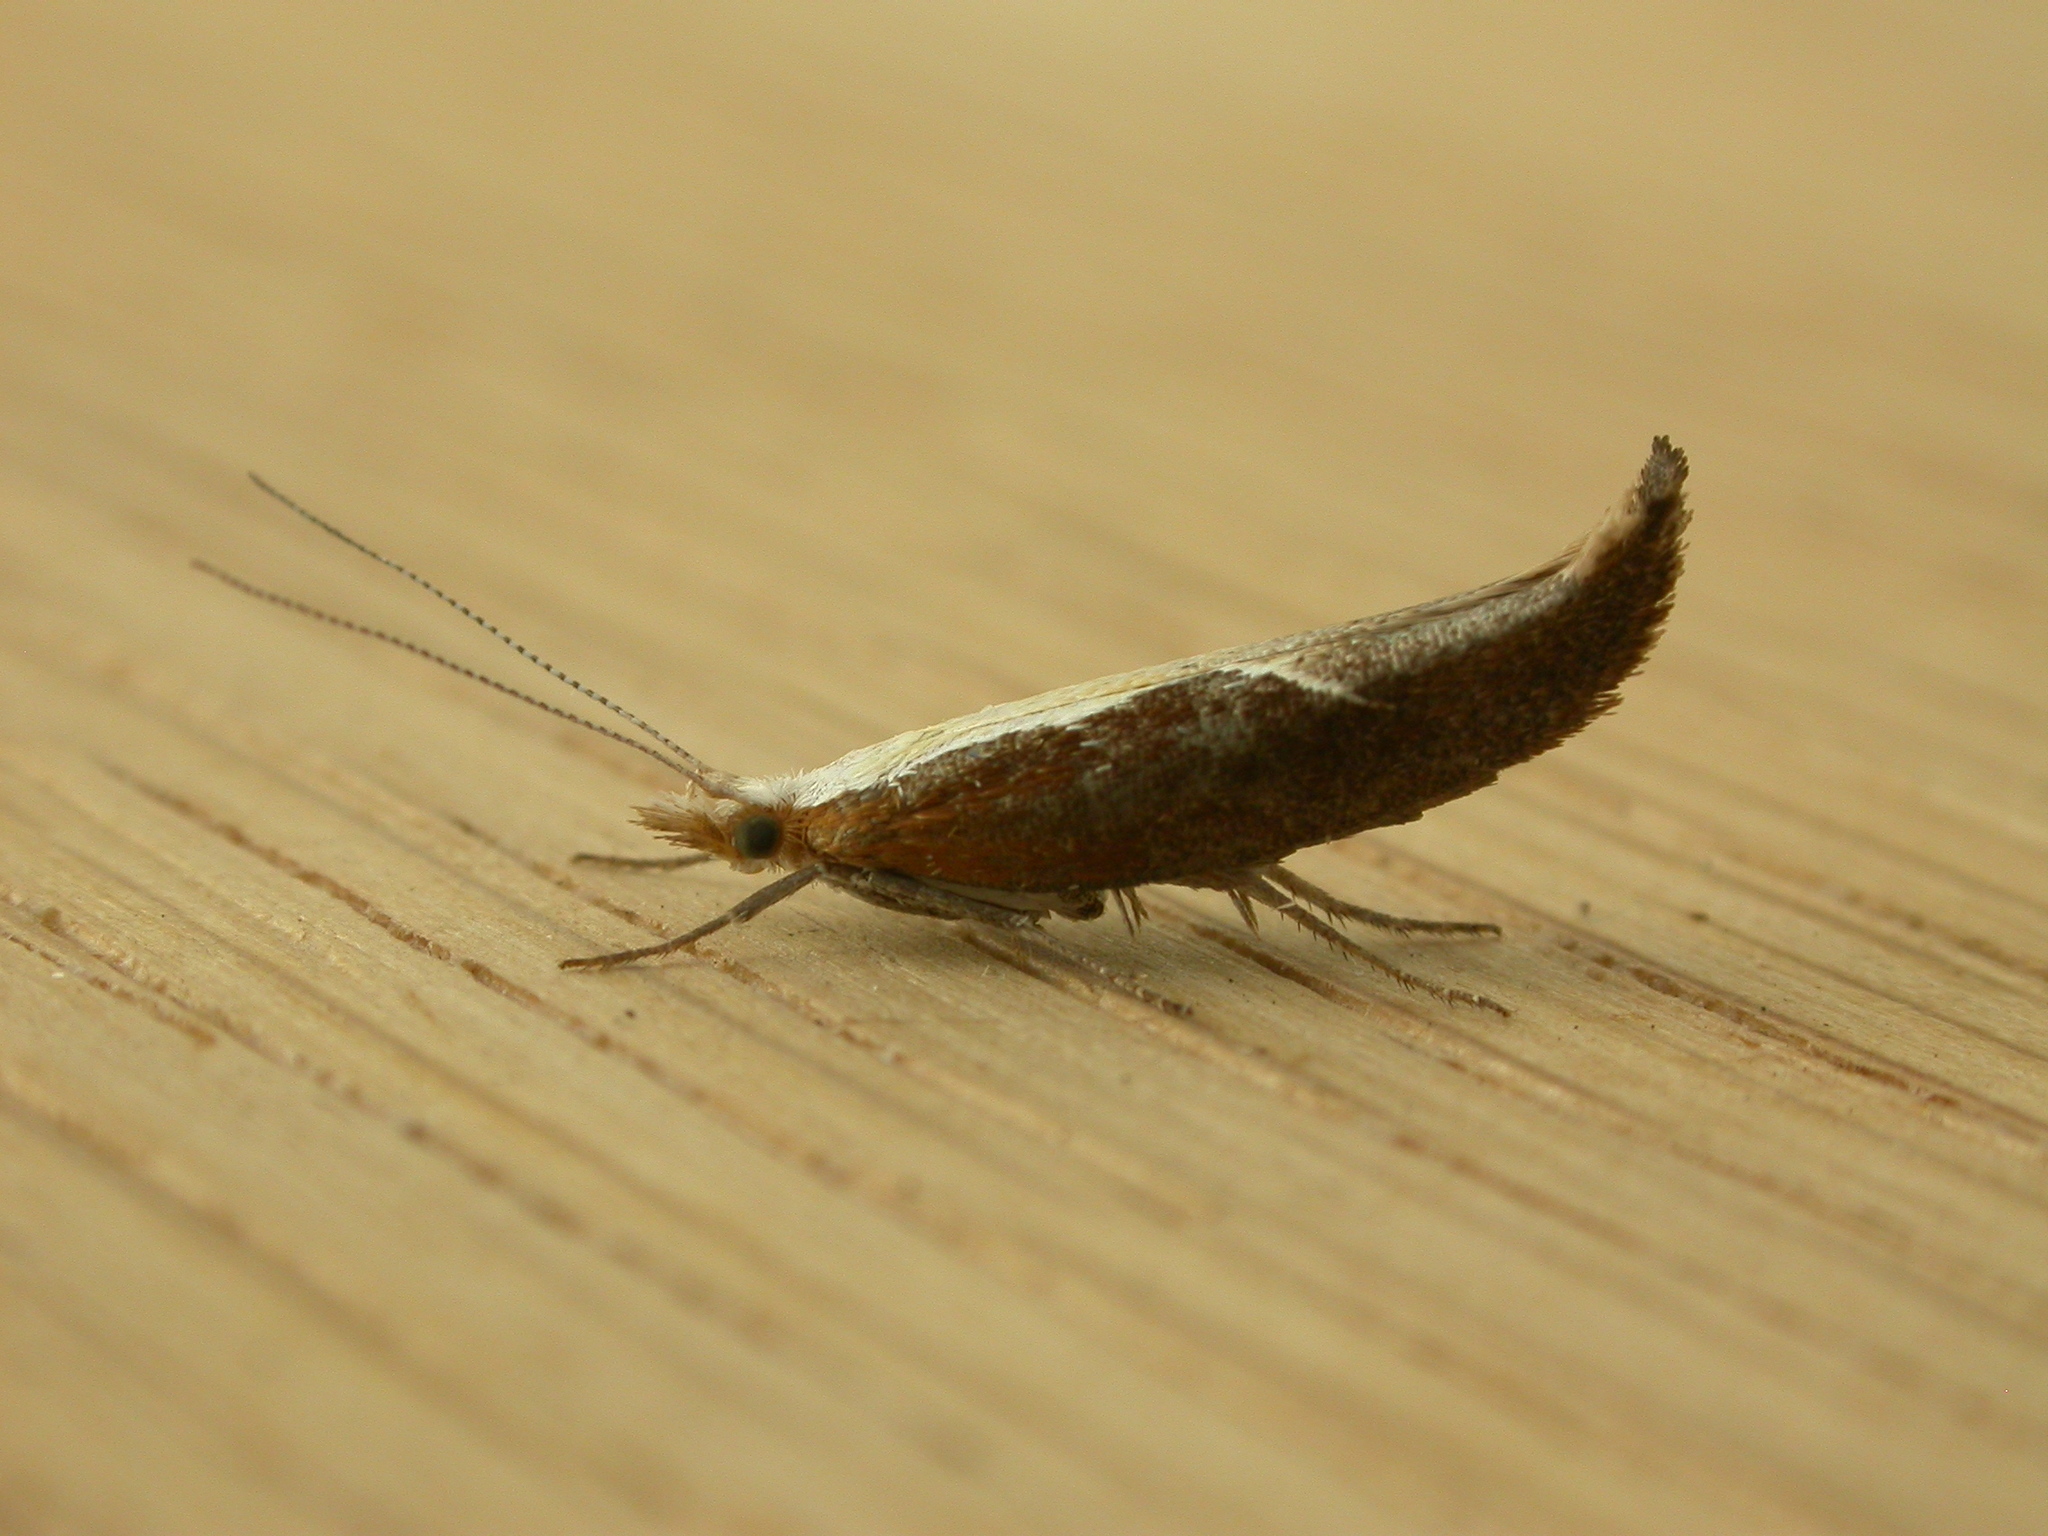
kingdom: Animalia
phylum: Arthropoda
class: Insecta
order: Lepidoptera
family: Ypsolophidae
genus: Ypsolopha
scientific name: Ypsolopha dentella
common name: Honeysuckle moth
